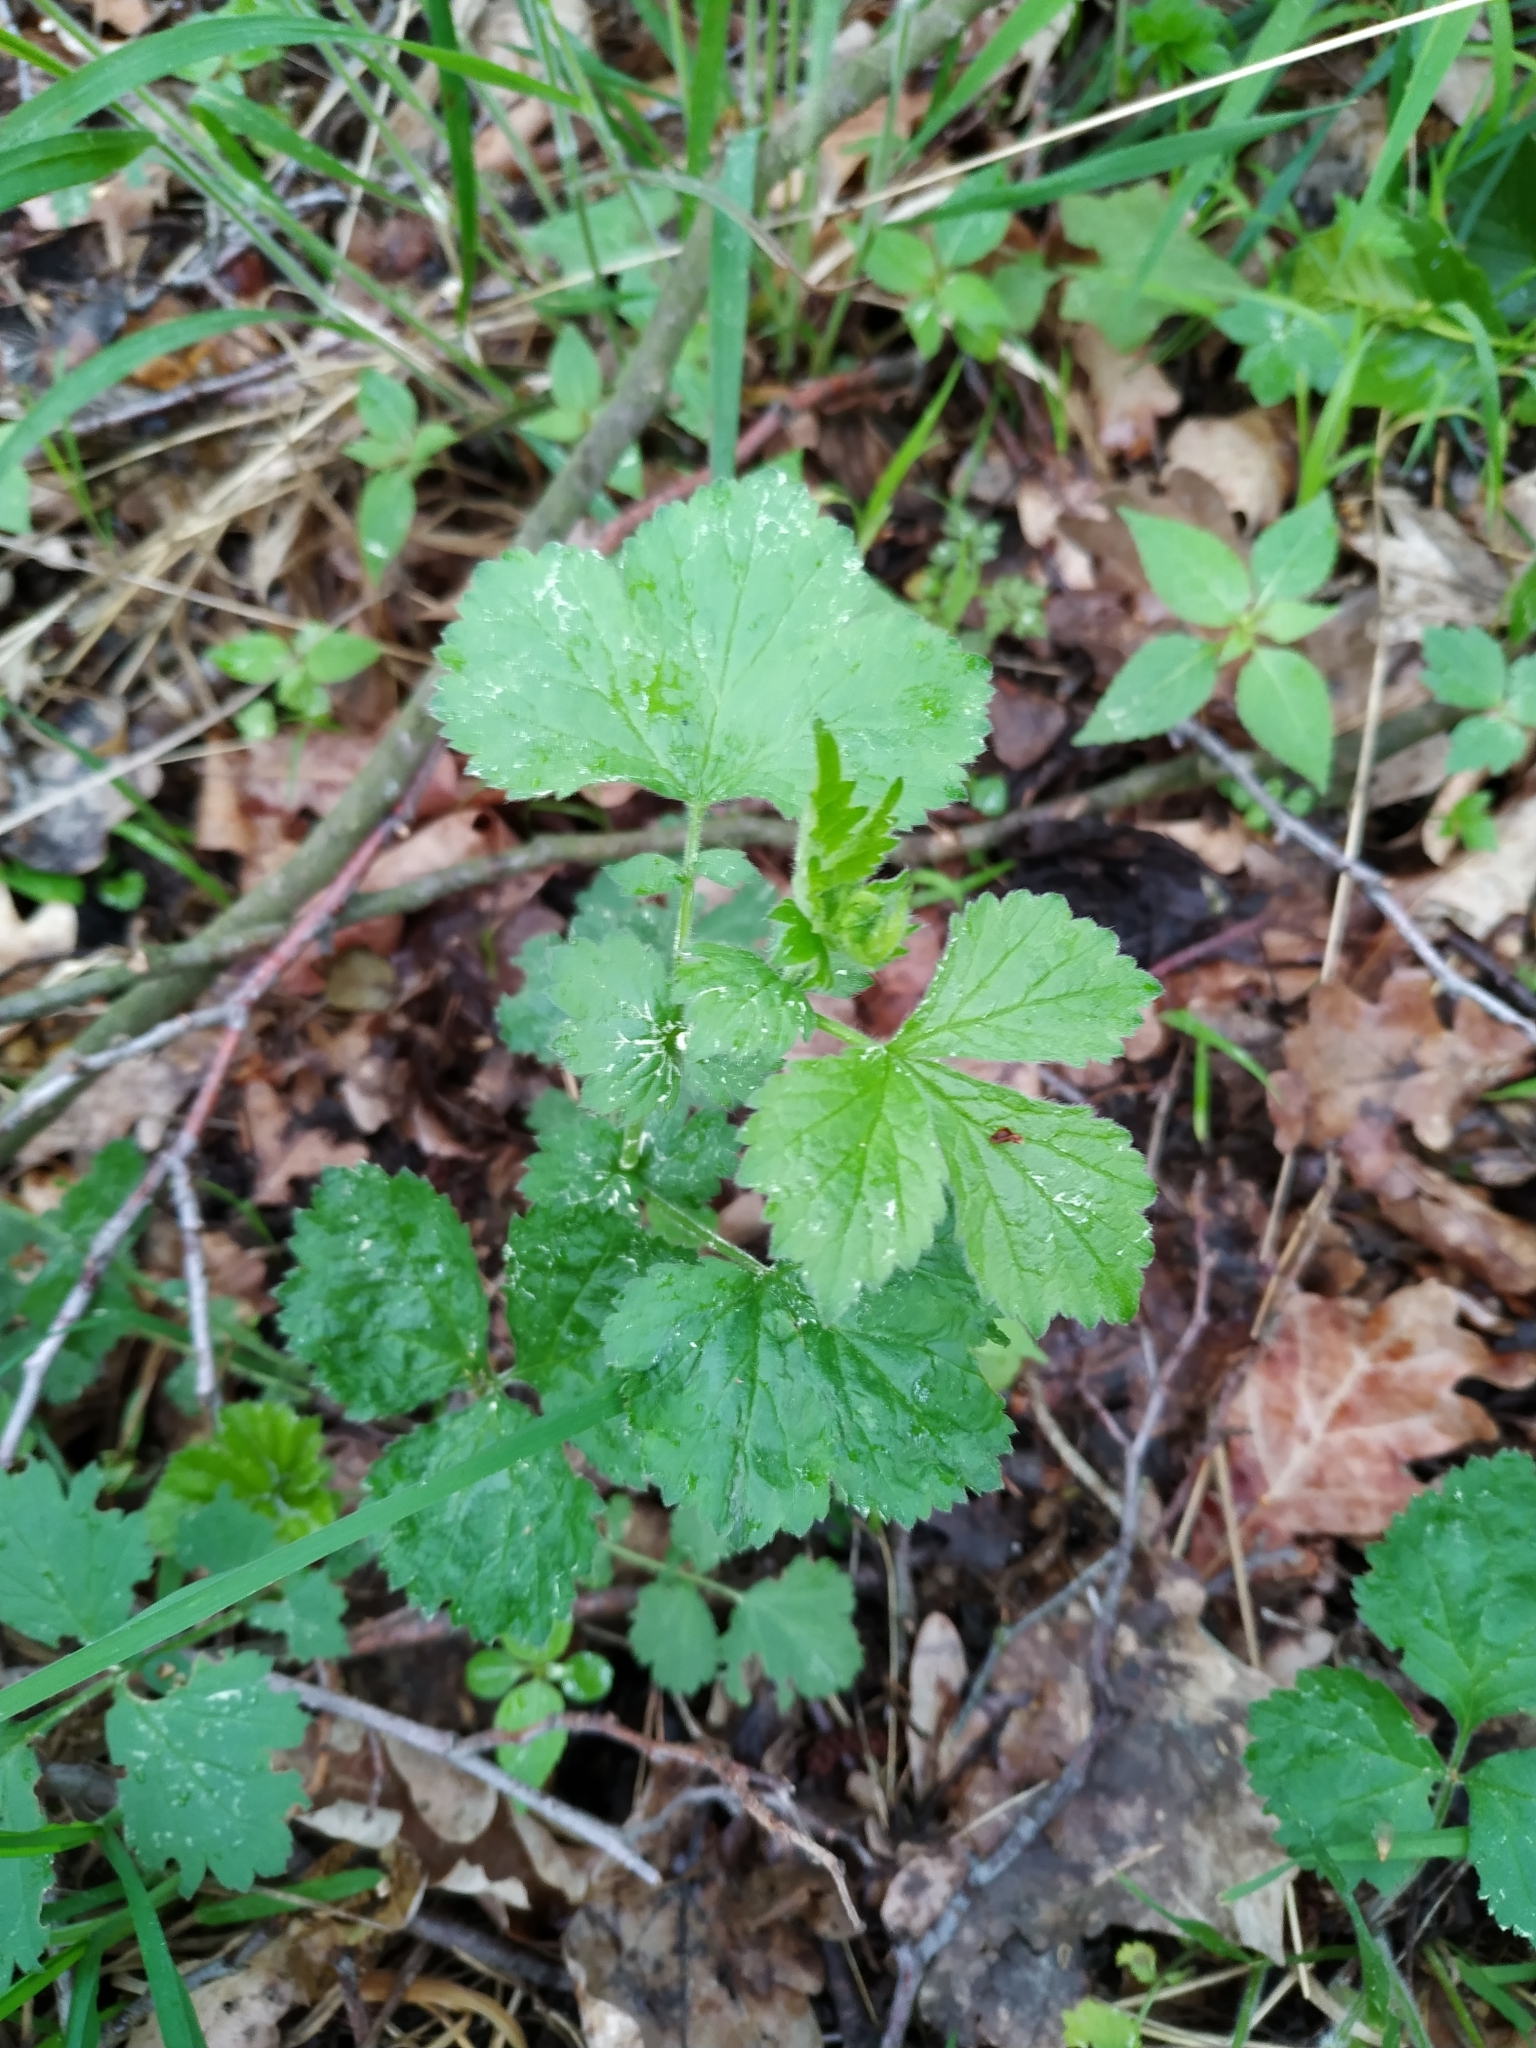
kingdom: Plantae
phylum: Tracheophyta
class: Magnoliopsida
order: Rosales
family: Rosaceae
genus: Geum
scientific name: Geum urbanum
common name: Wood avens
